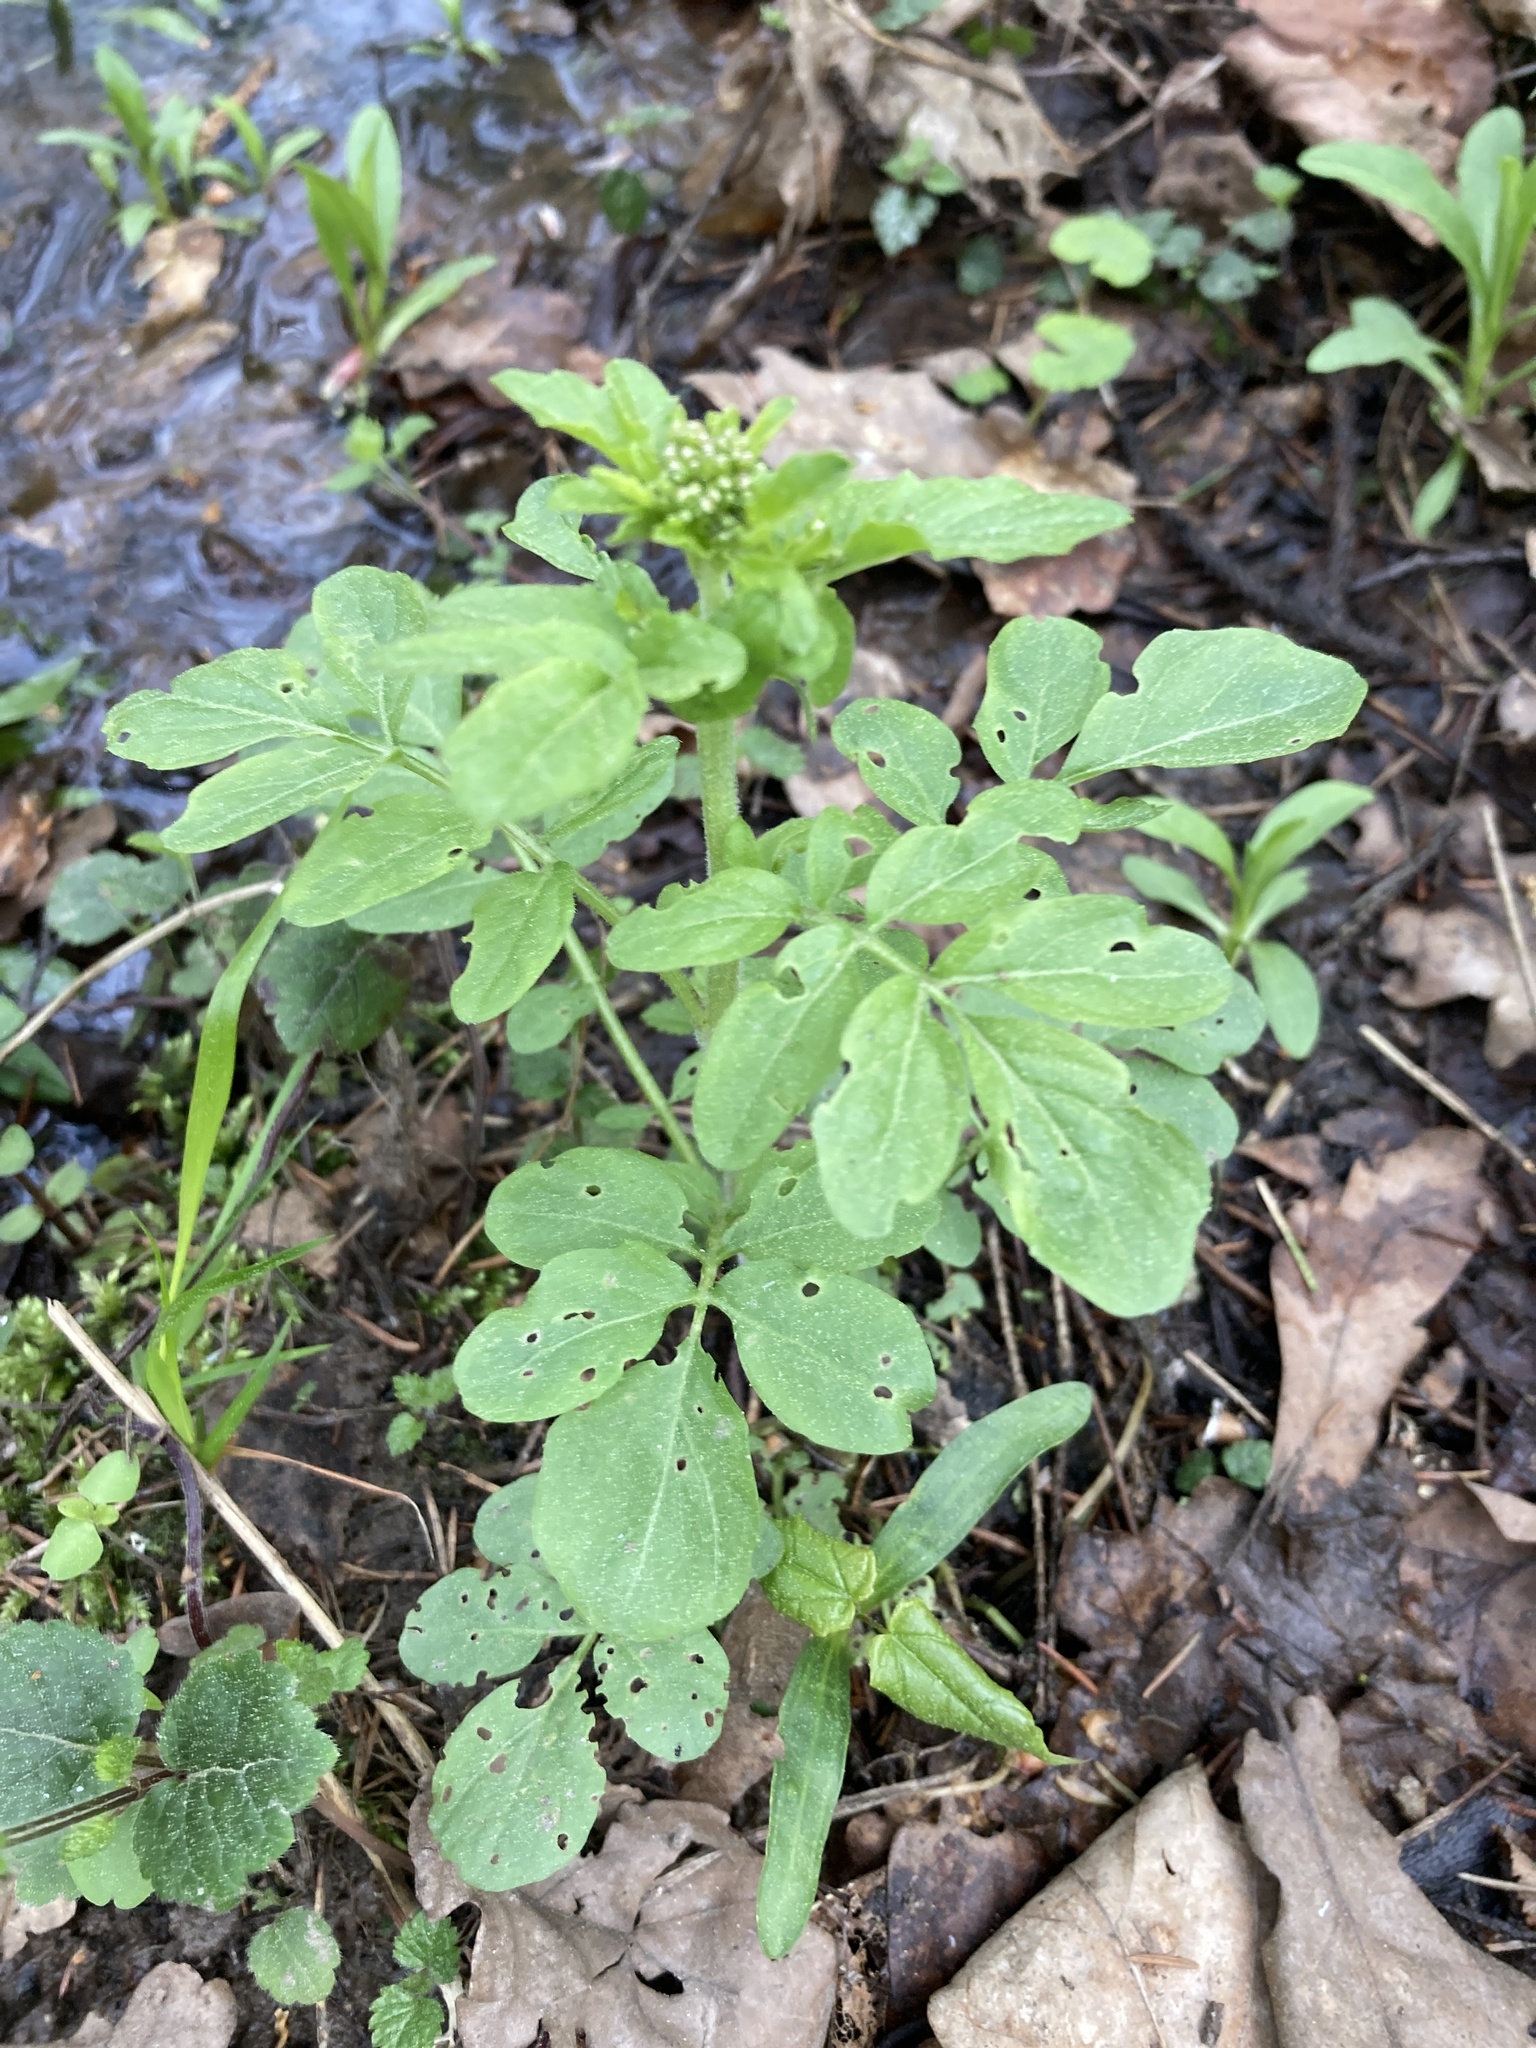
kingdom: Plantae
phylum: Tracheophyta
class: Magnoliopsida
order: Brassicales
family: Brassicaceae
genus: Cardamine
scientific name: Cardamine amara
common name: Large bitter-cress
